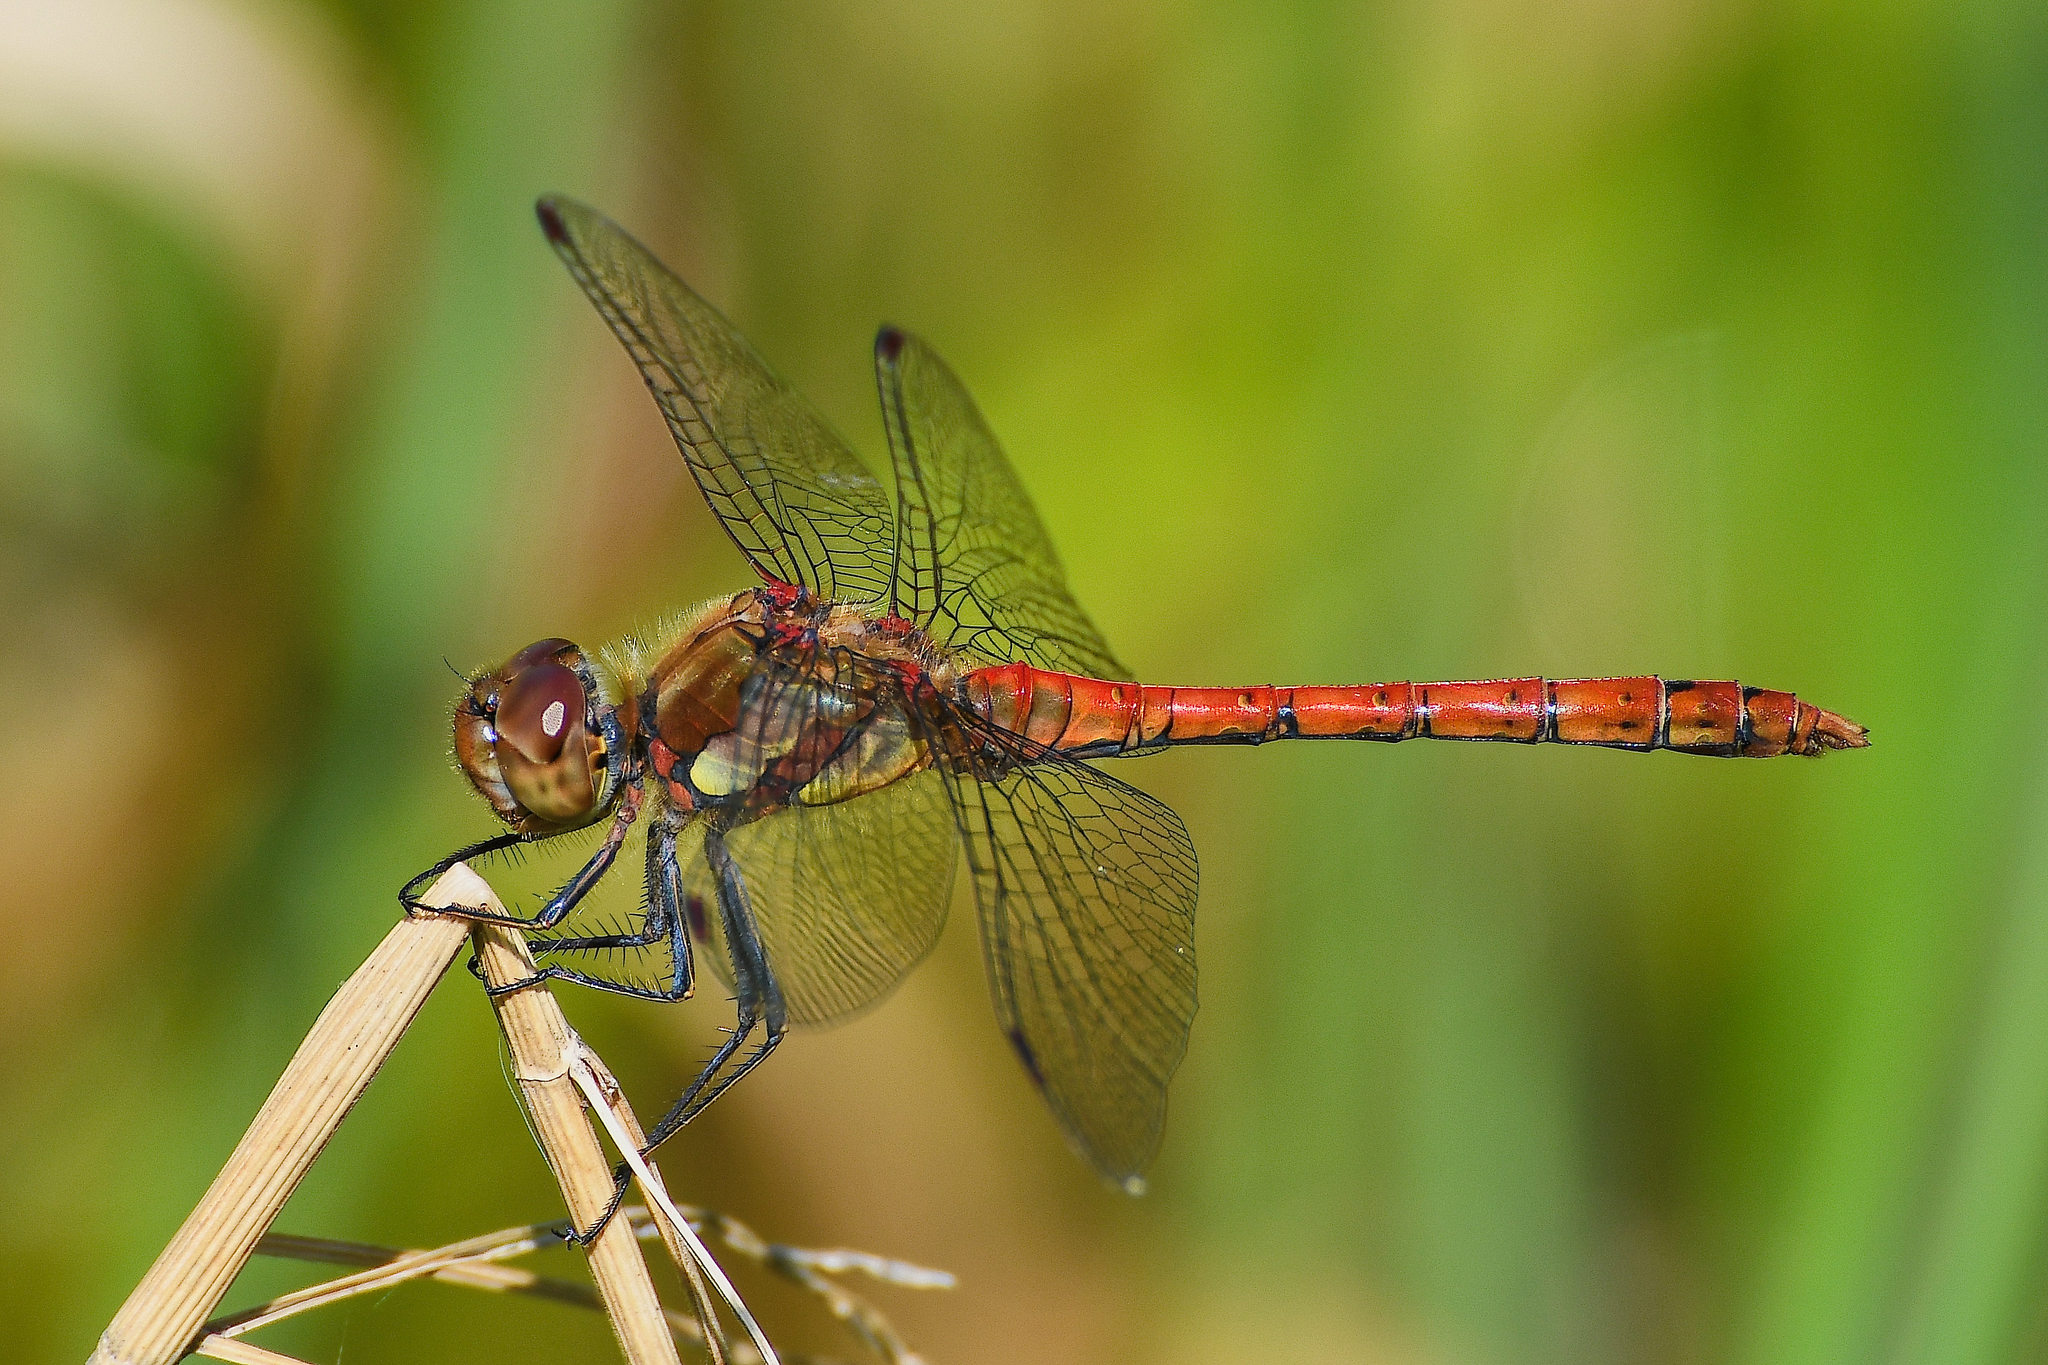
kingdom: Animalia
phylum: Arthropoda
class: Insecta
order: Odonata
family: Libellulidae
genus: Sympetrum
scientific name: Sympetrum striolatum
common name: Common darter
